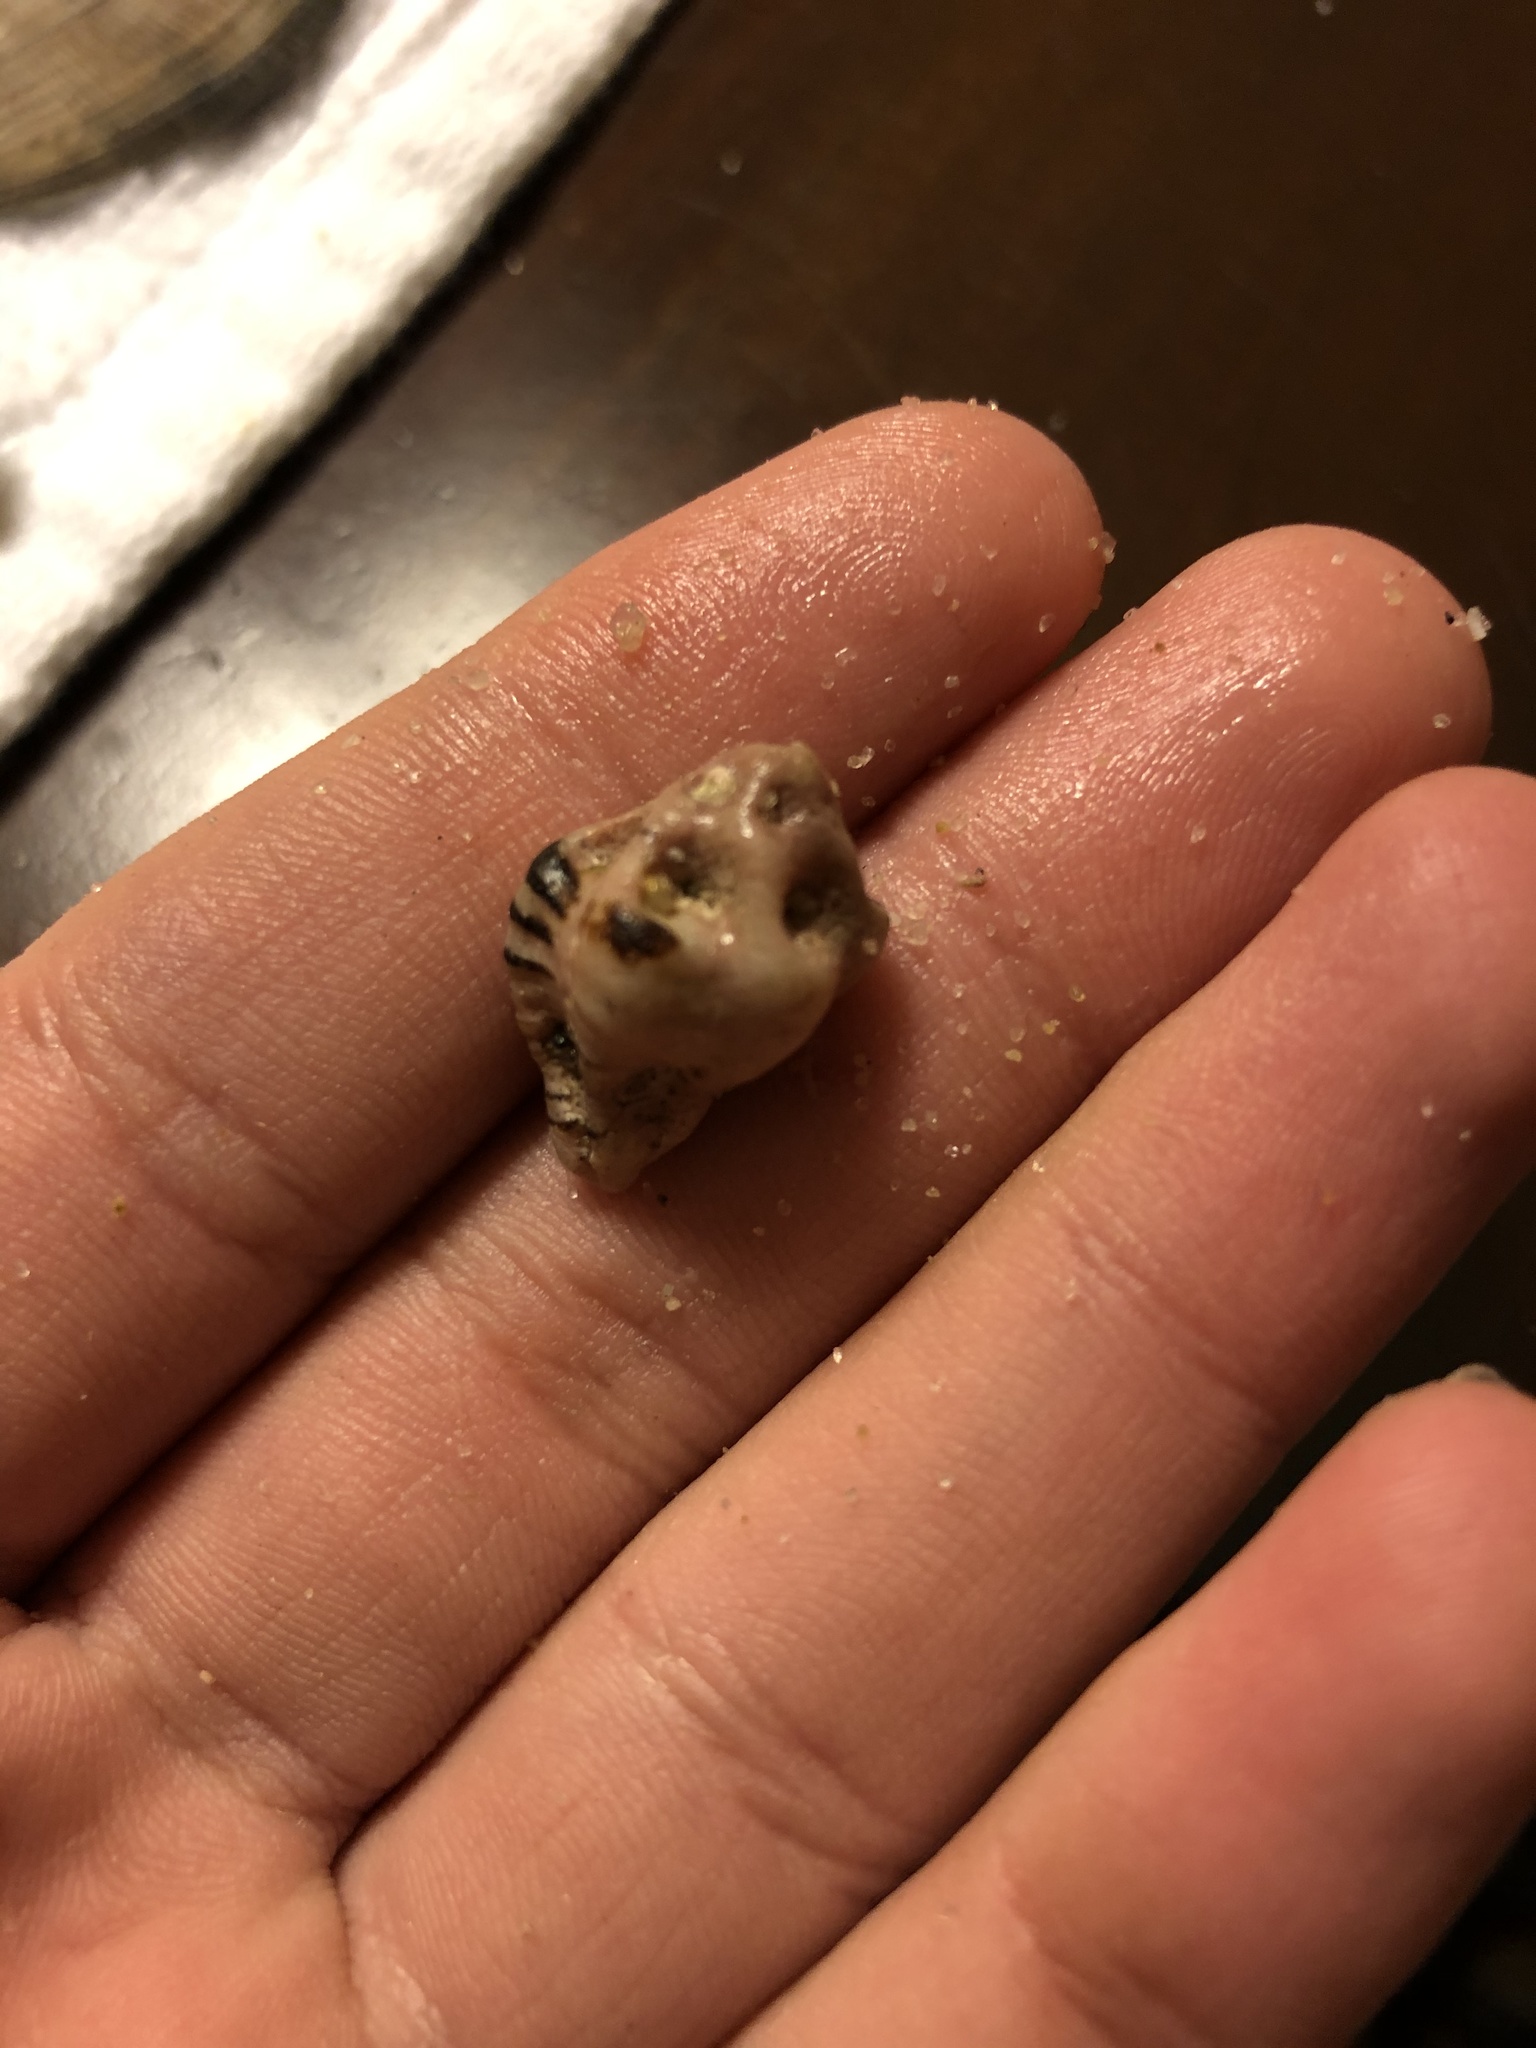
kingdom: Animalia
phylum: Mollusca
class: Gastropoda
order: Neogastropoda
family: Muricidae
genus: Maxwellia
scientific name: Maxwellia gemma
